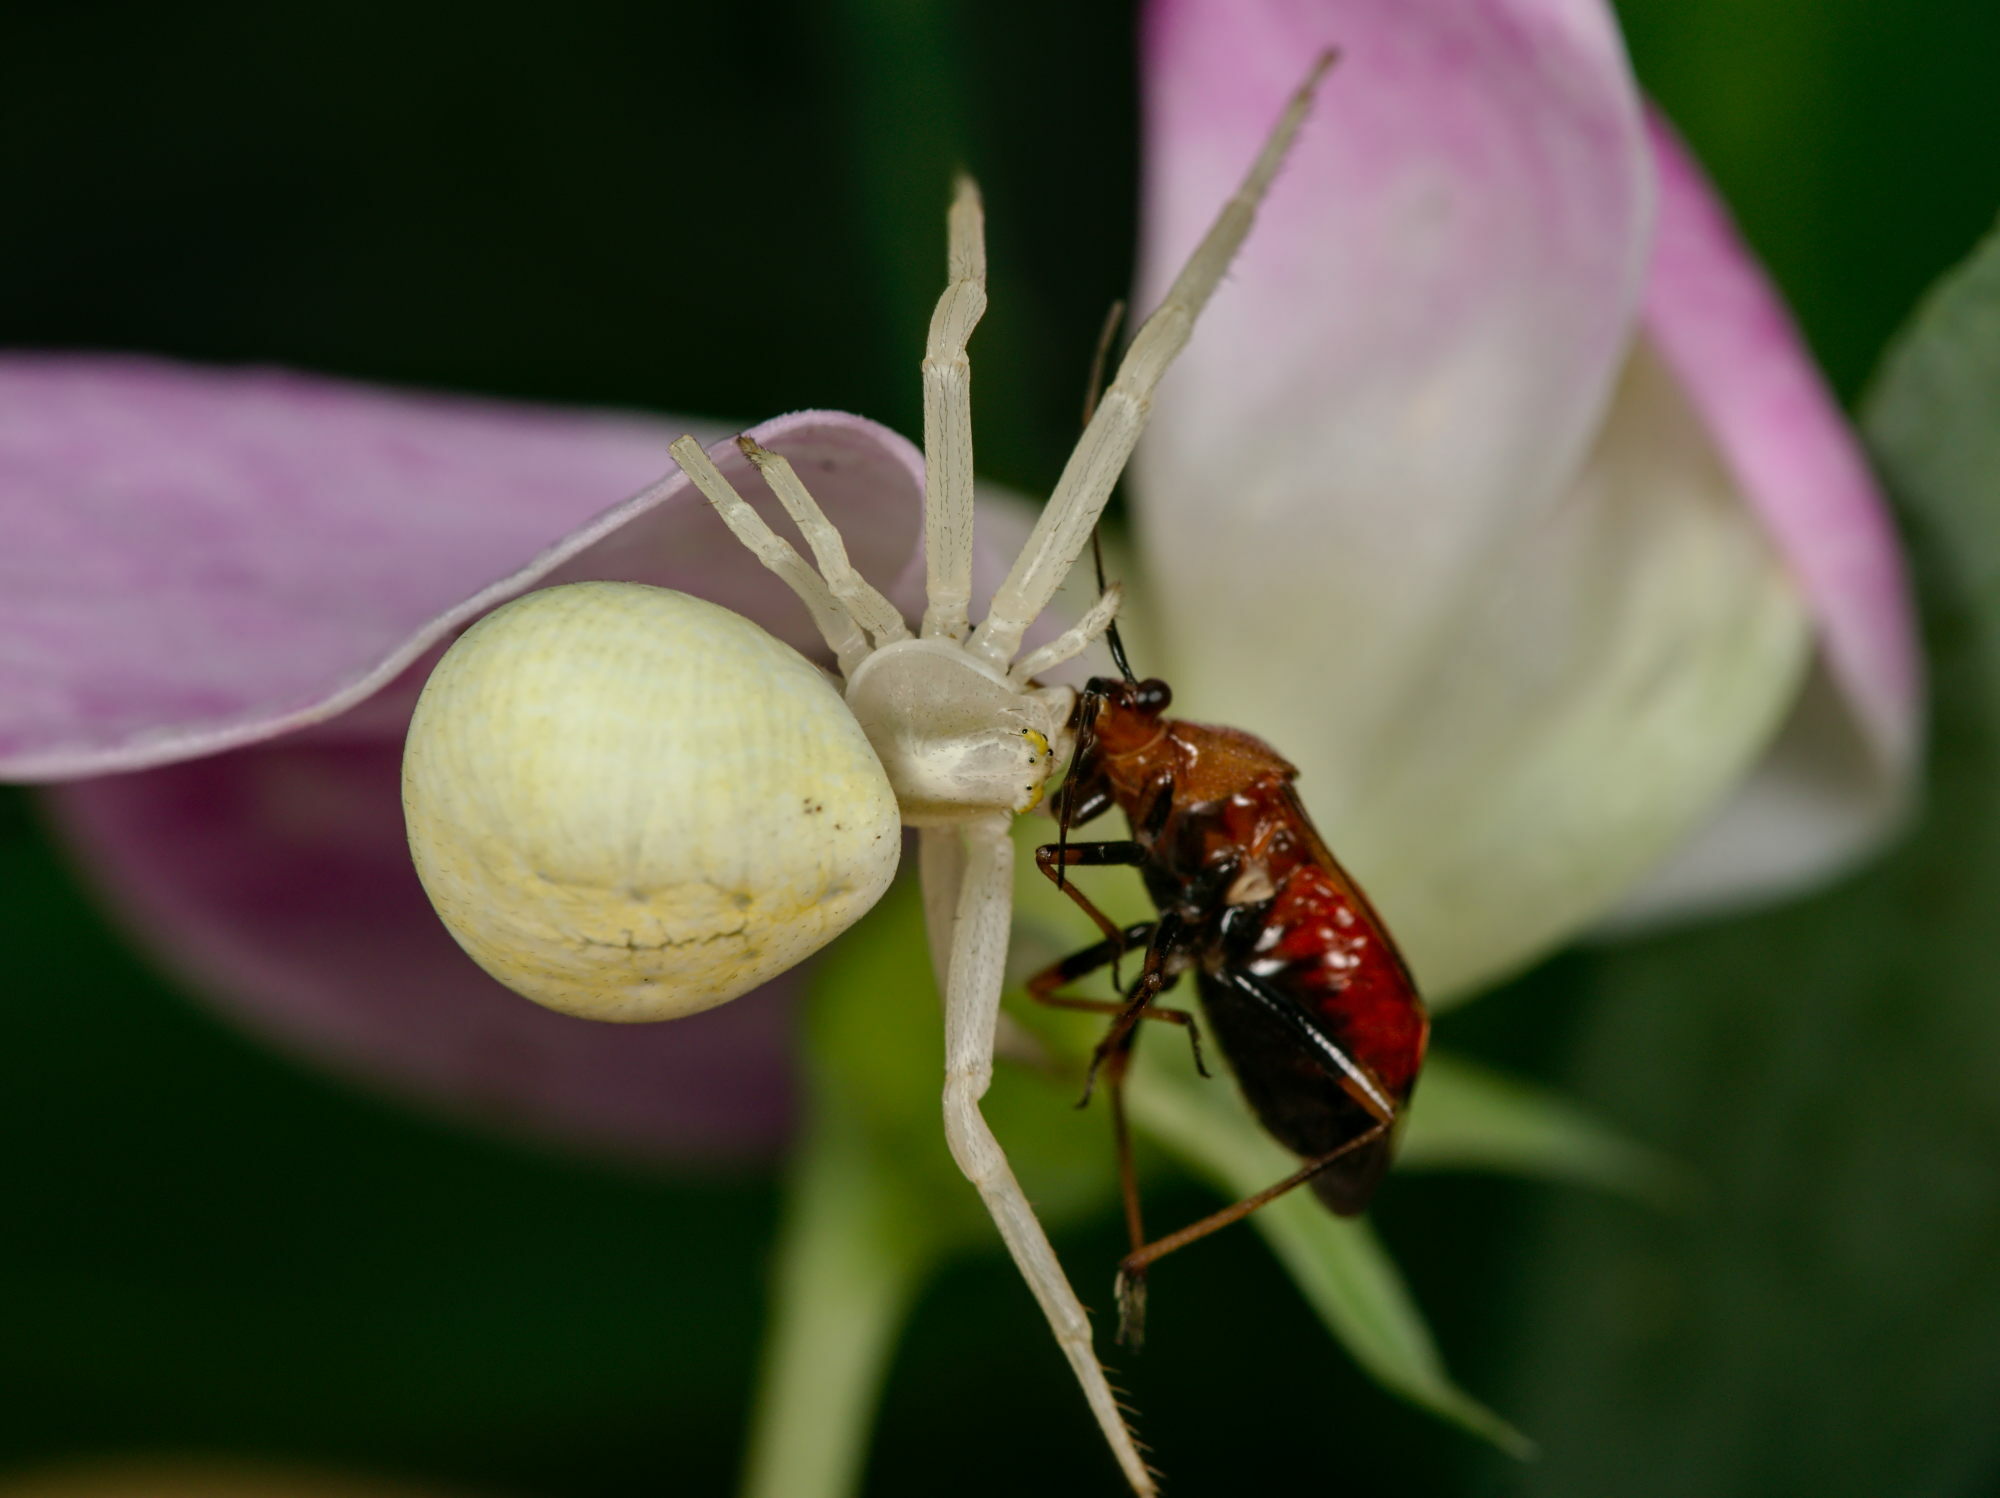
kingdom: Animalia
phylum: Arthropoda
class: Arachnida
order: Araneae
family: Thomisidae
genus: Misumena
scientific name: Misumena vatia
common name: Goldenrod crab spider
